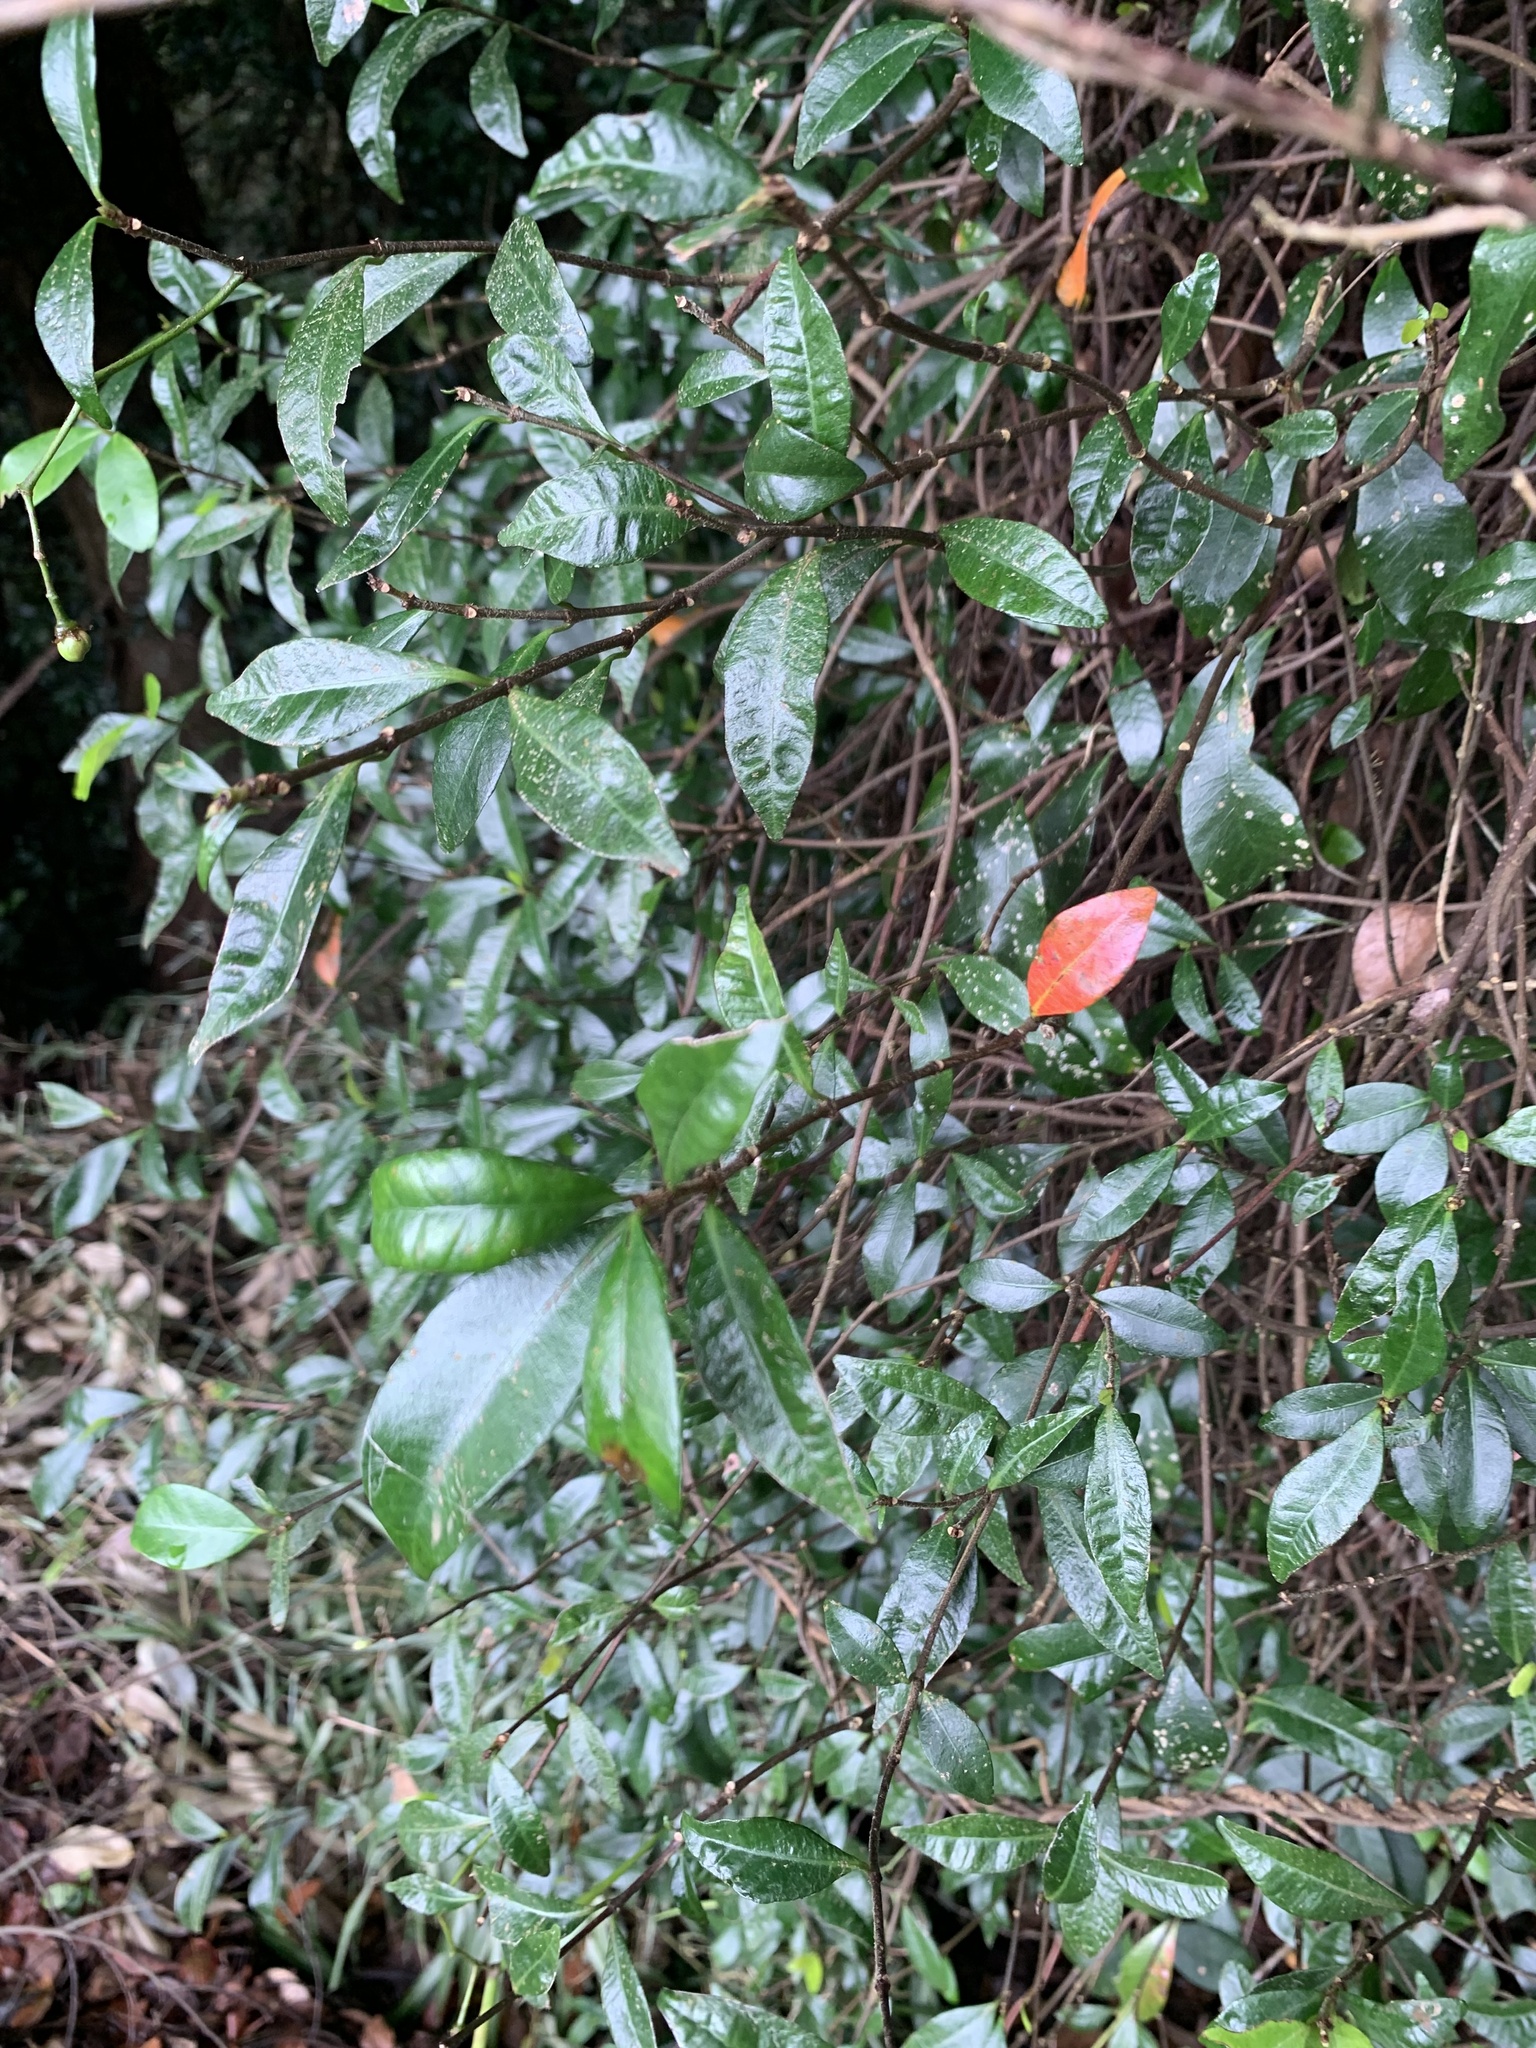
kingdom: Plantae
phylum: Tracheophyta
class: Magnoliopsida
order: Gentianales
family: Apocynaceae
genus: Trachelospermum
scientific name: Trachelospermum asiaticum
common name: Asiatic jasmine
